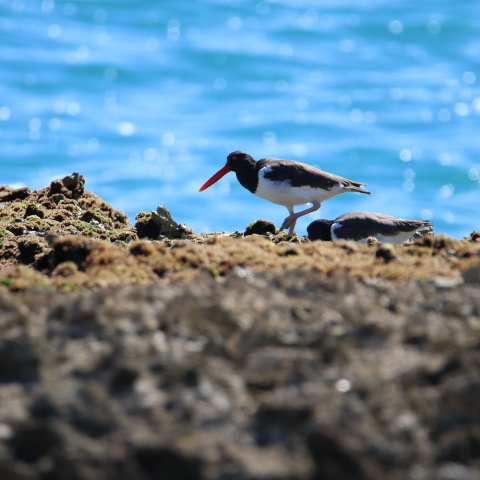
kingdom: Animalia
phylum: Chordata
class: Aves
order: Charadriiformes
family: Haematopodidae
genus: Haematopus
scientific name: Haematopus palliatus
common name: American oystercatcher
